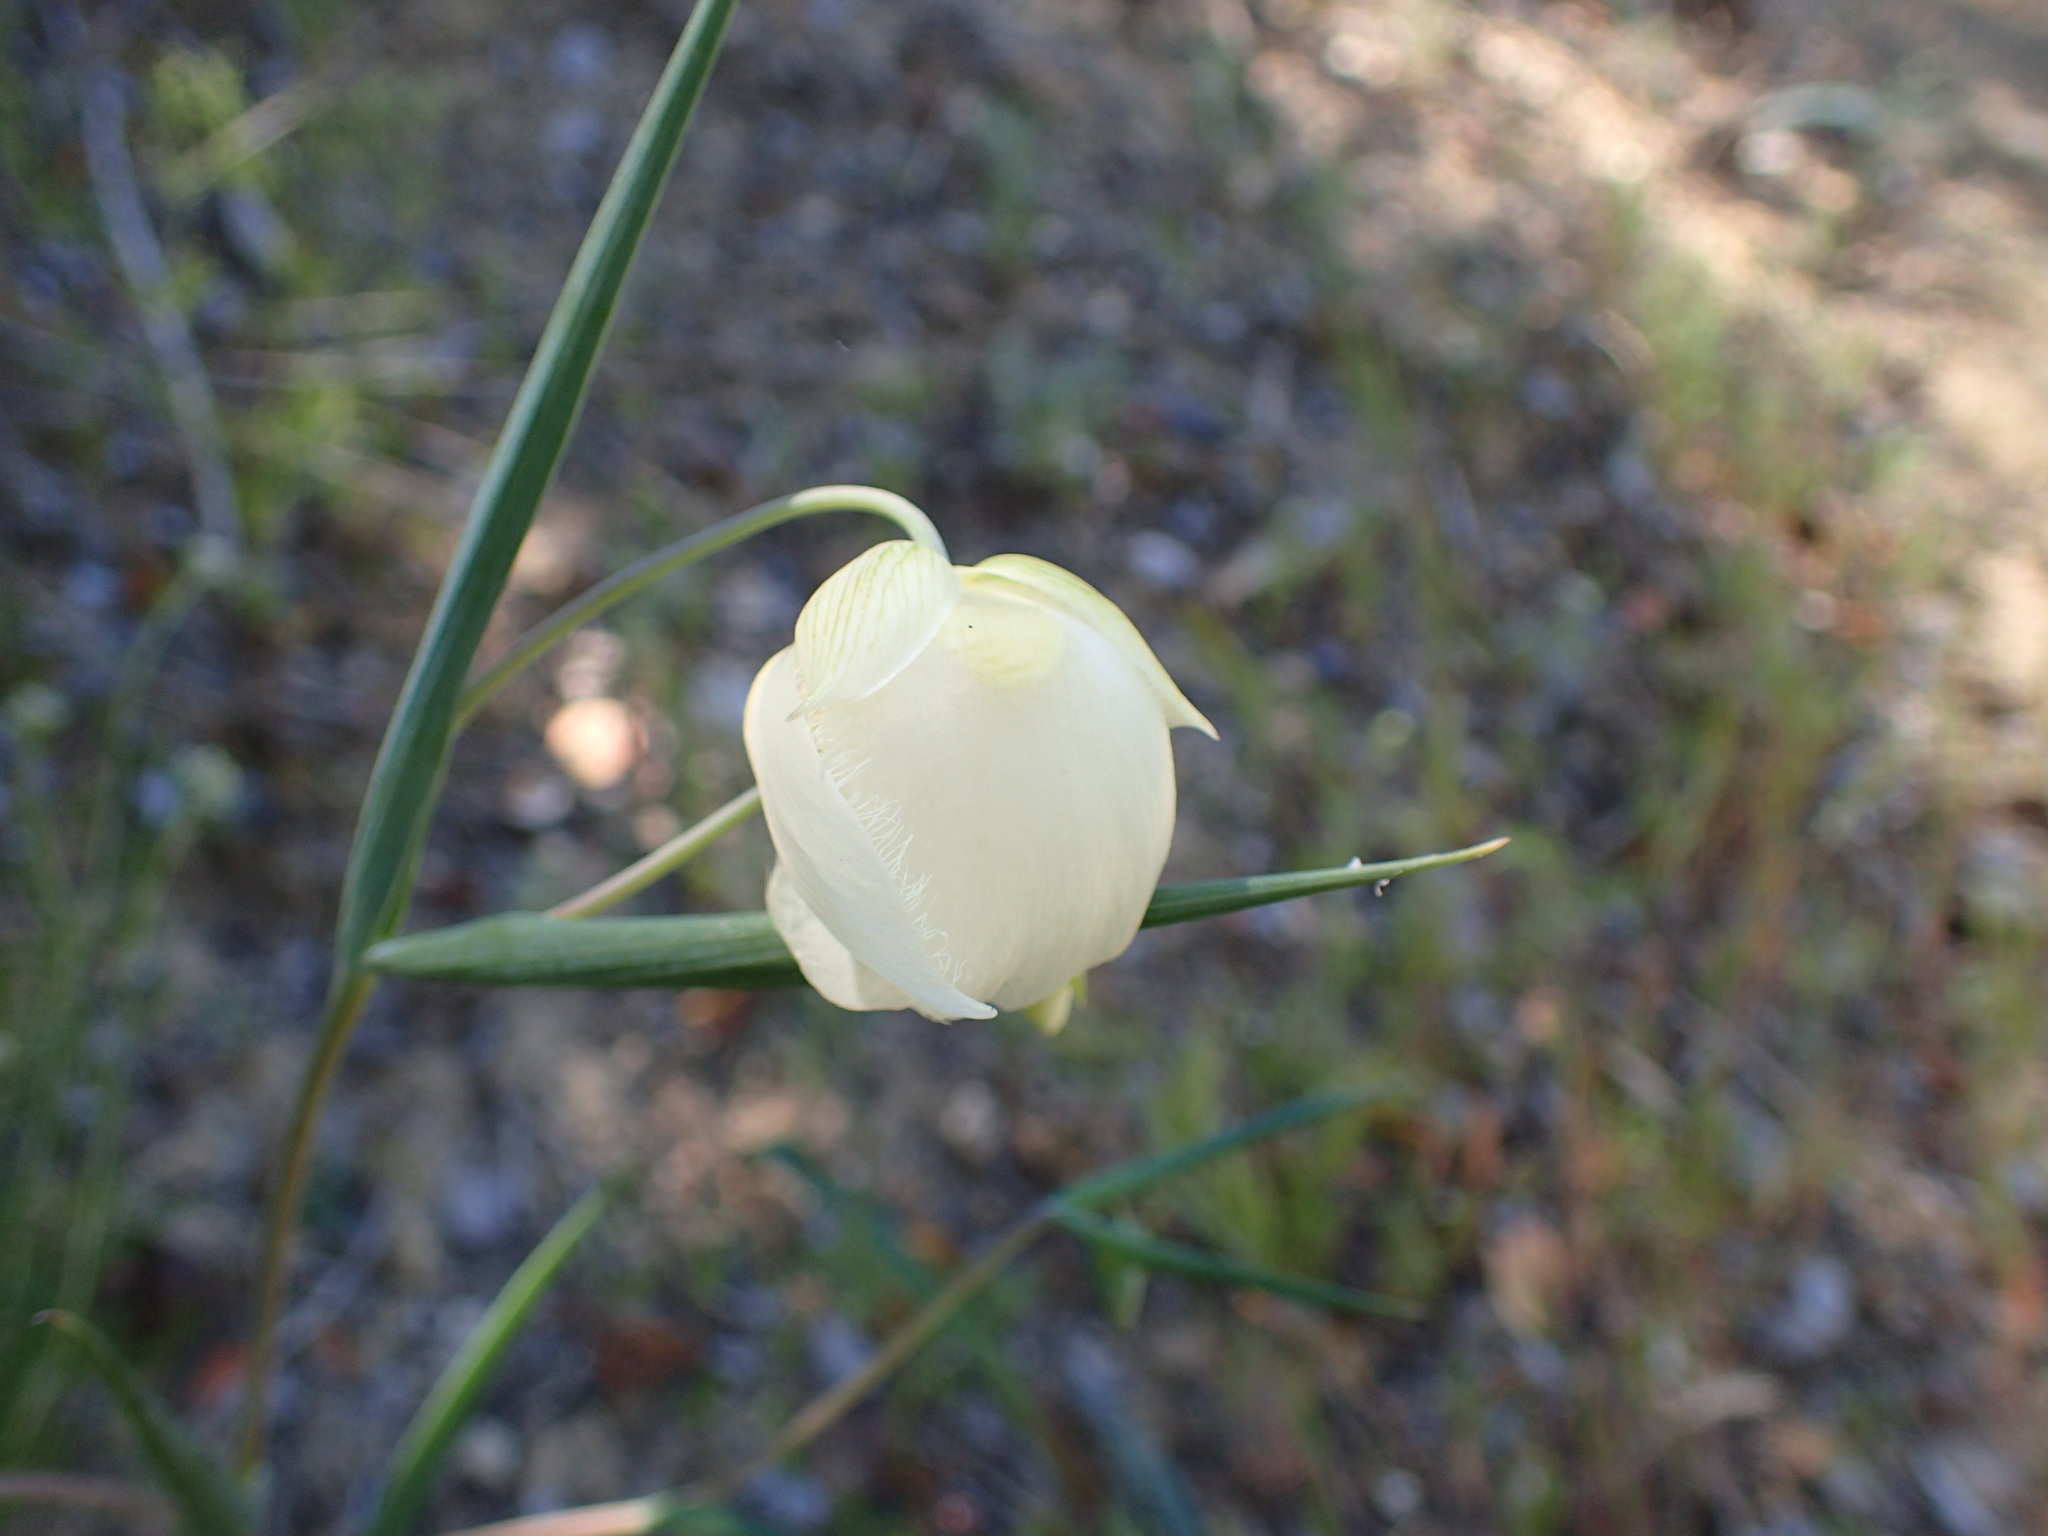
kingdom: Plantae
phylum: Tracheophyta
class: Liliopsida
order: Liliales
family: Liliaceae
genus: Calochortus
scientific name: Calochortus albus
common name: Fairy-lantern
